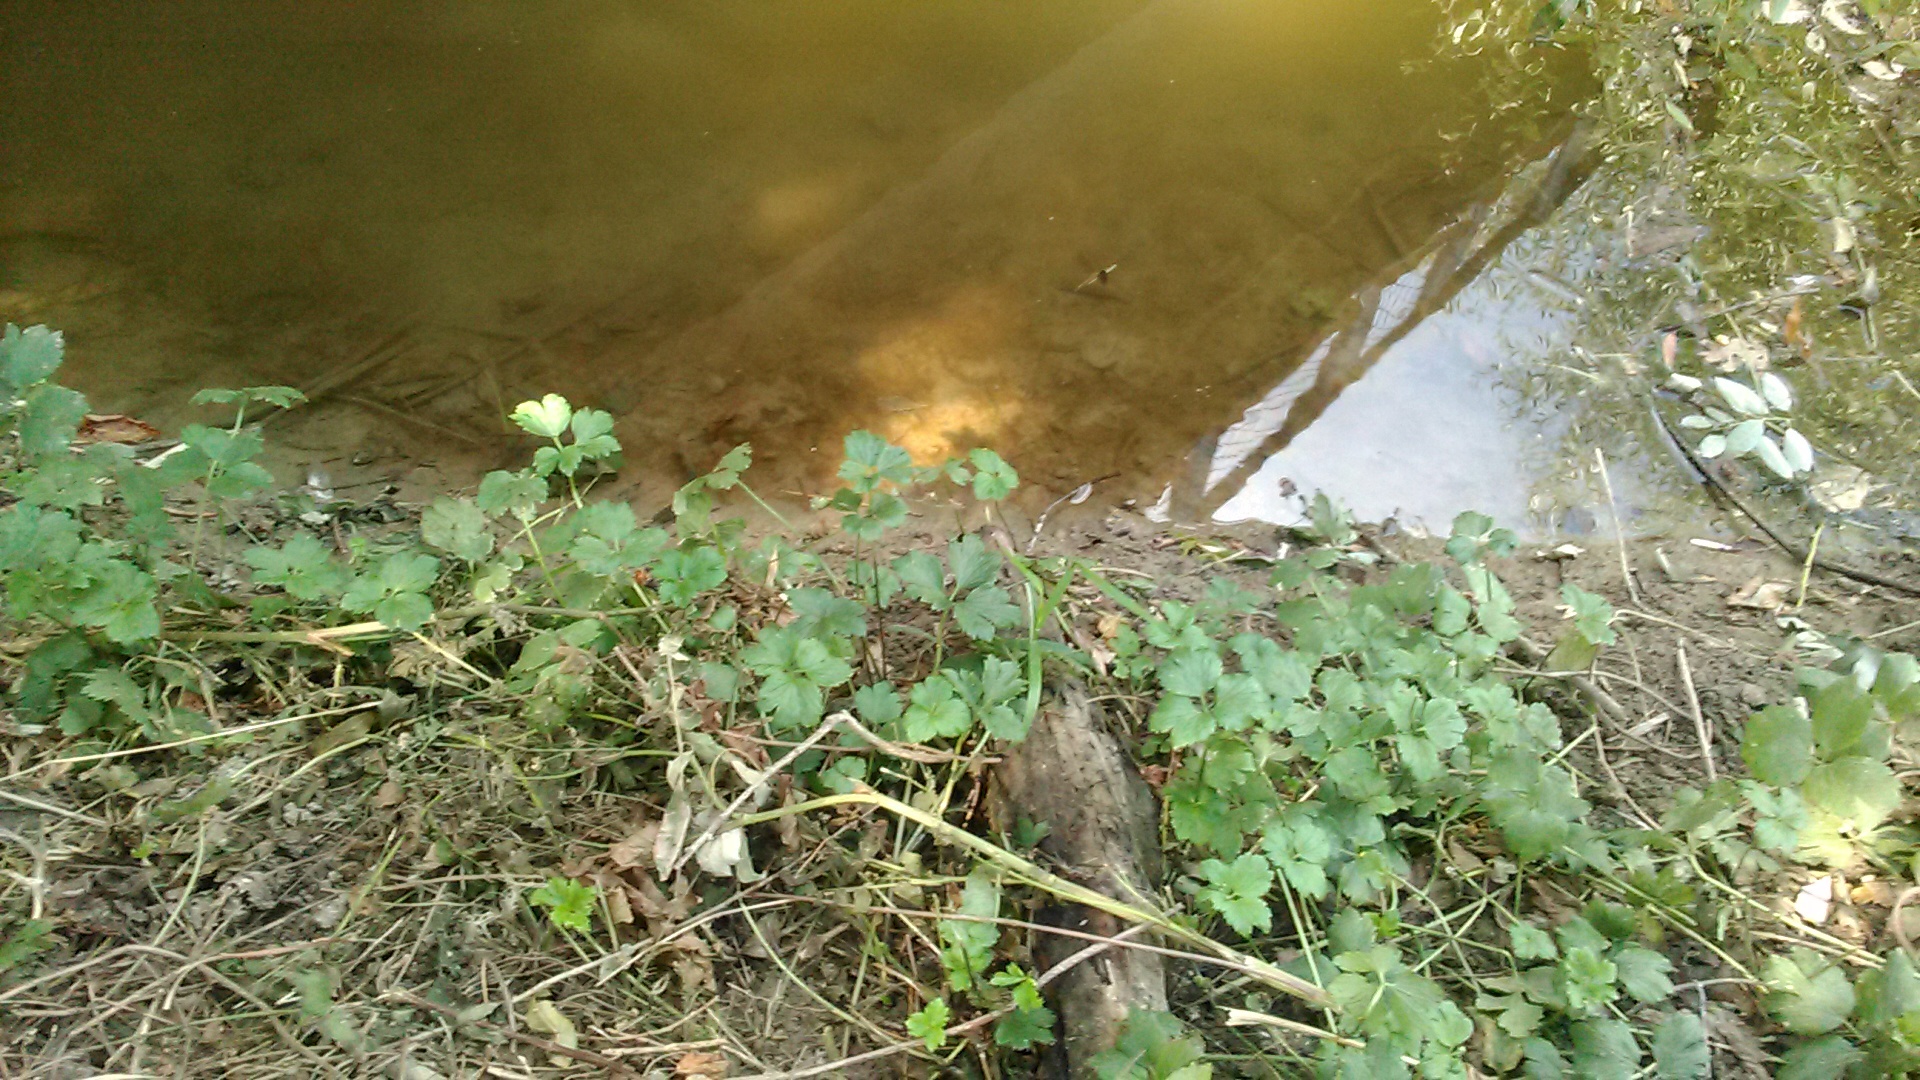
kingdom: Plantae
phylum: Tracheophyta
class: Magnoliopsida
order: Ranunculales
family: Ranunculaceae
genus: Ranunculus
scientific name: Ranunculus repens
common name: Creeping buttercup
